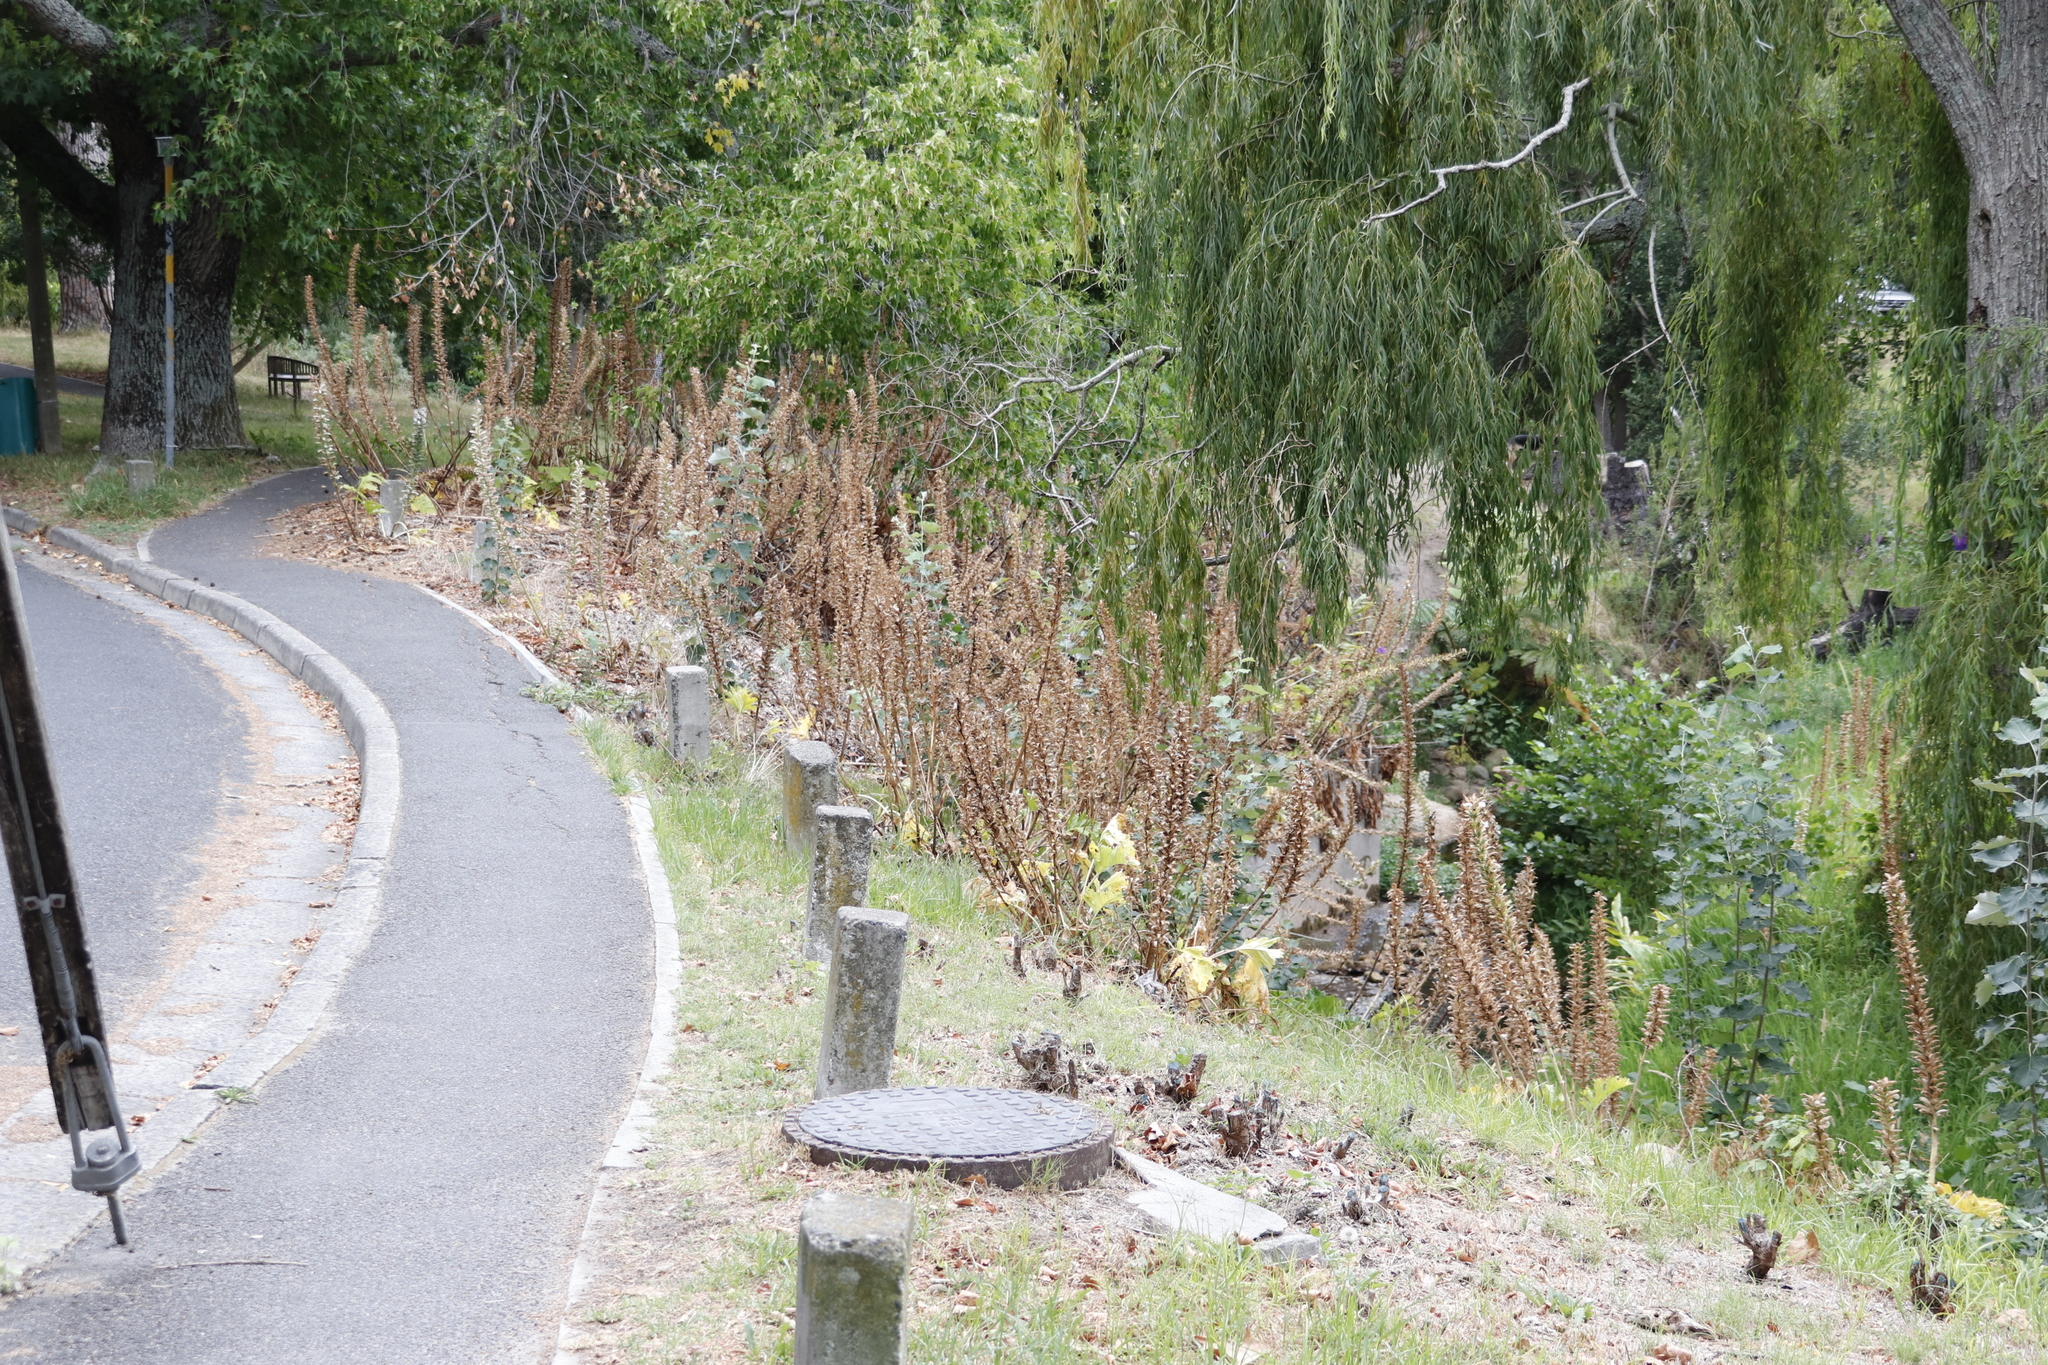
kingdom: Plantae
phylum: Tracheophyta
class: Magnoliopsida
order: Lamiales
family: Acanthaceae
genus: Acanthus
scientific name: Acanthus mollis
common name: Bear's-breech
